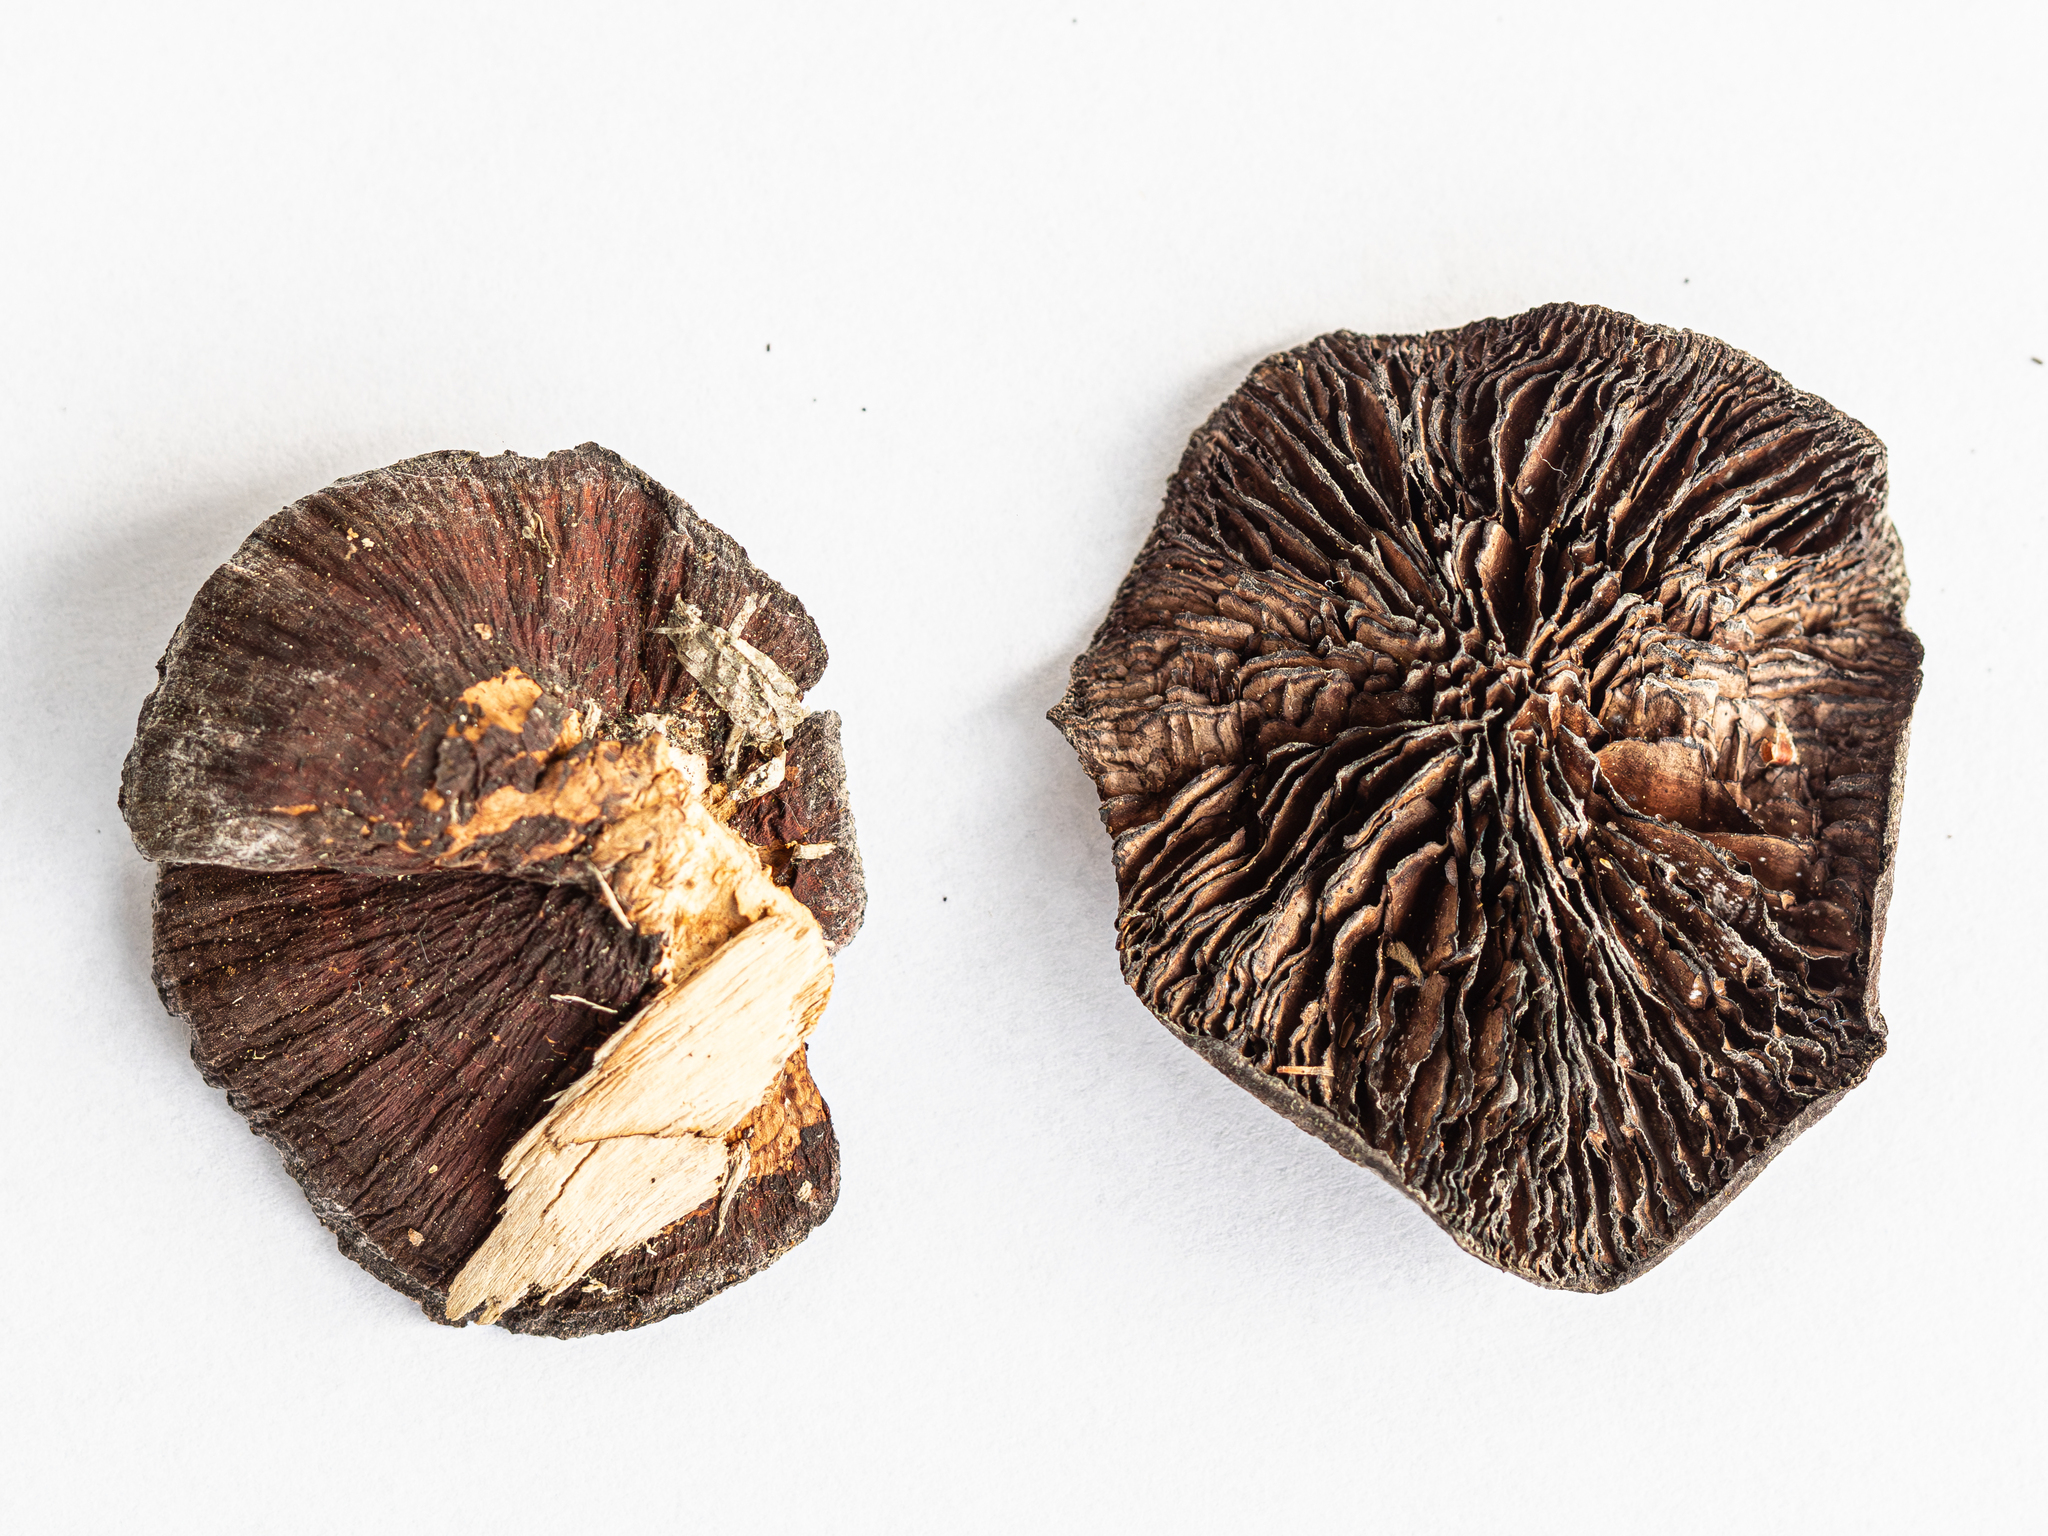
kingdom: Fungi
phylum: Basidiomycota
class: Agaricomycetes
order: Polyporales
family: Polyporaceae
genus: Daedaleopsis
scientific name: Daedaleopsis tricolor
